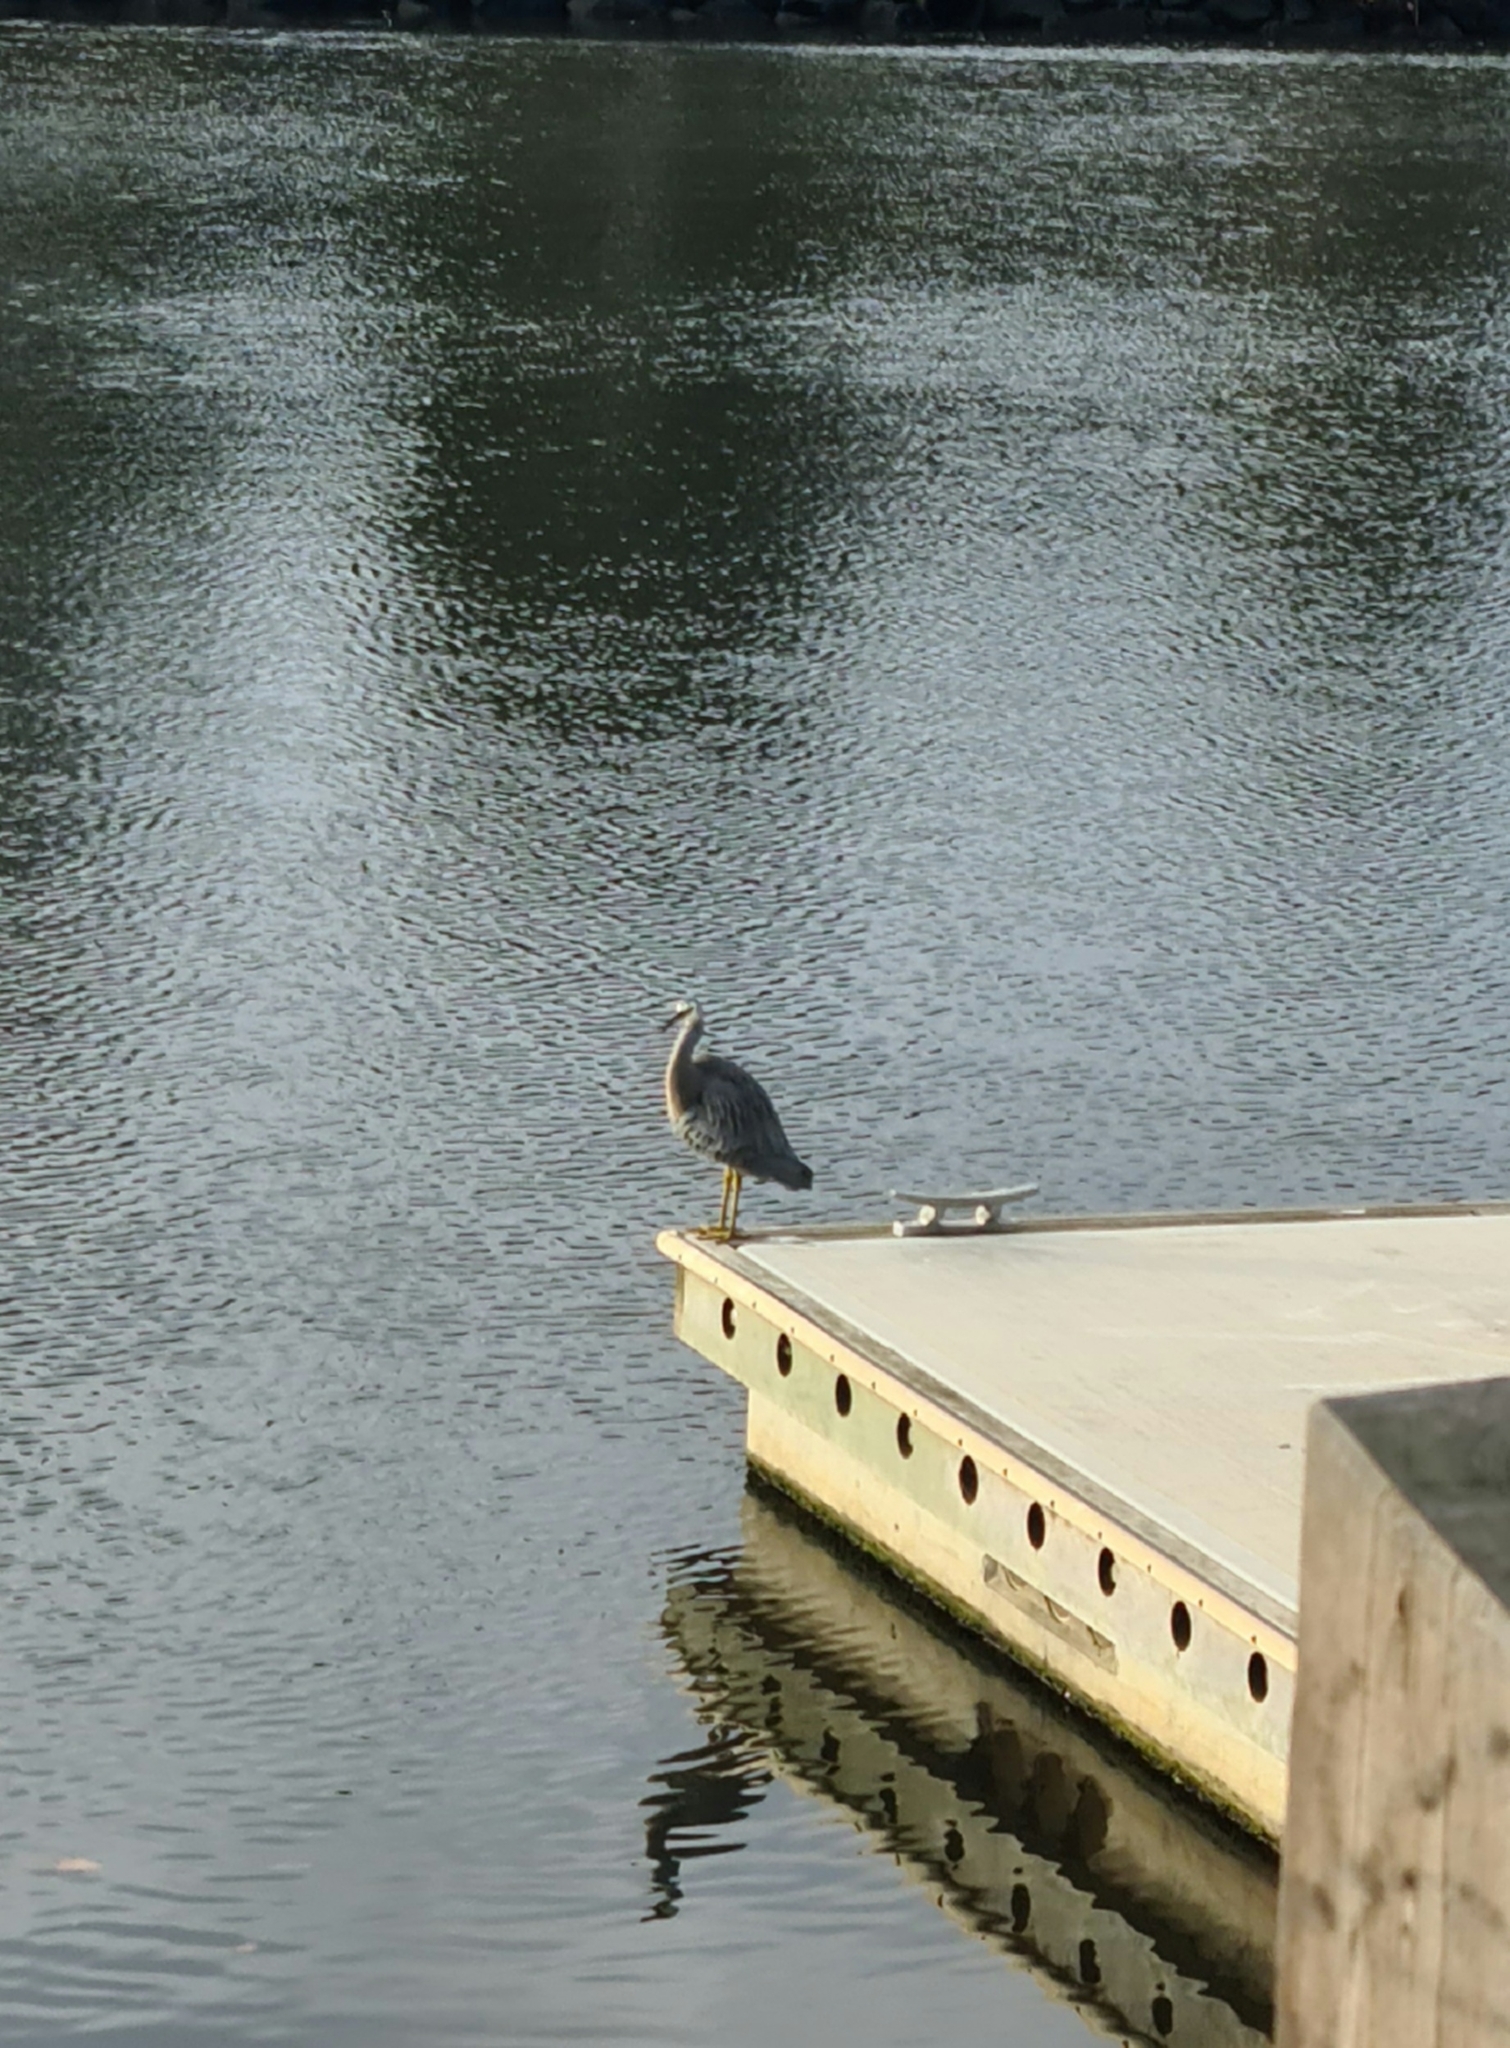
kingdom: Animalia
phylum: Chordata
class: Aves
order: Pelecaniformes
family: Ardeidae
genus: Egretta
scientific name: Egretta novaehollandiae
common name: White-faced heron
